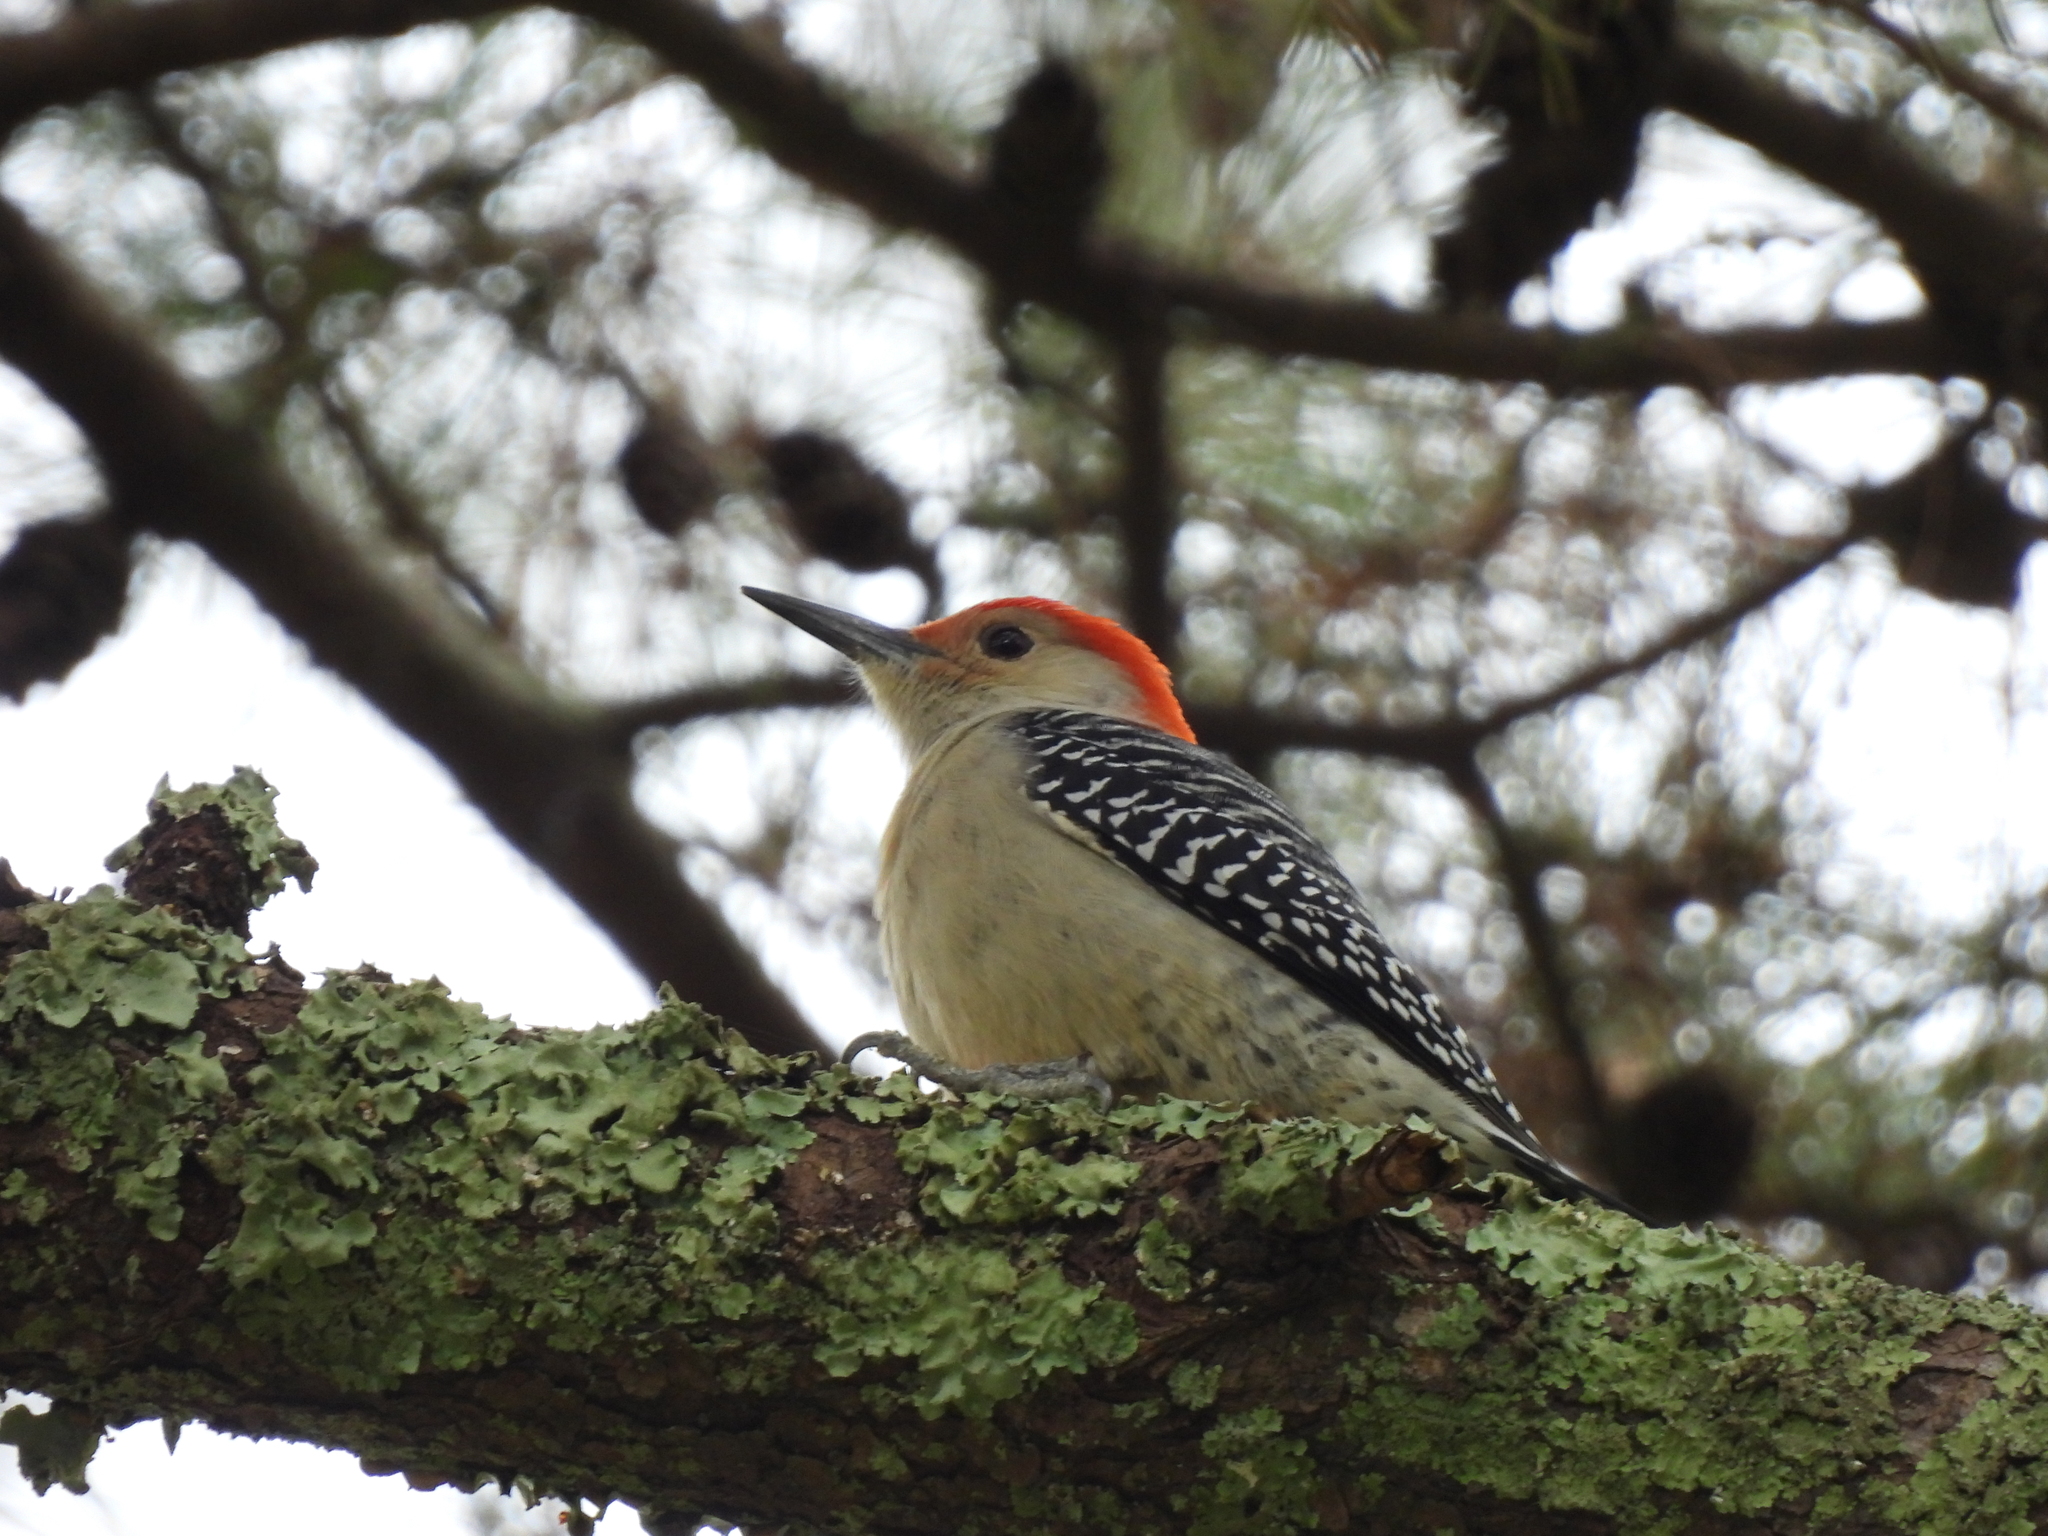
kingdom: Animalia
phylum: Chordata
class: Aves
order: Piciformes
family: Picidae
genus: Melanerpes
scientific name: Melanerpes carolinus
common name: Red-bellied woodpecker
